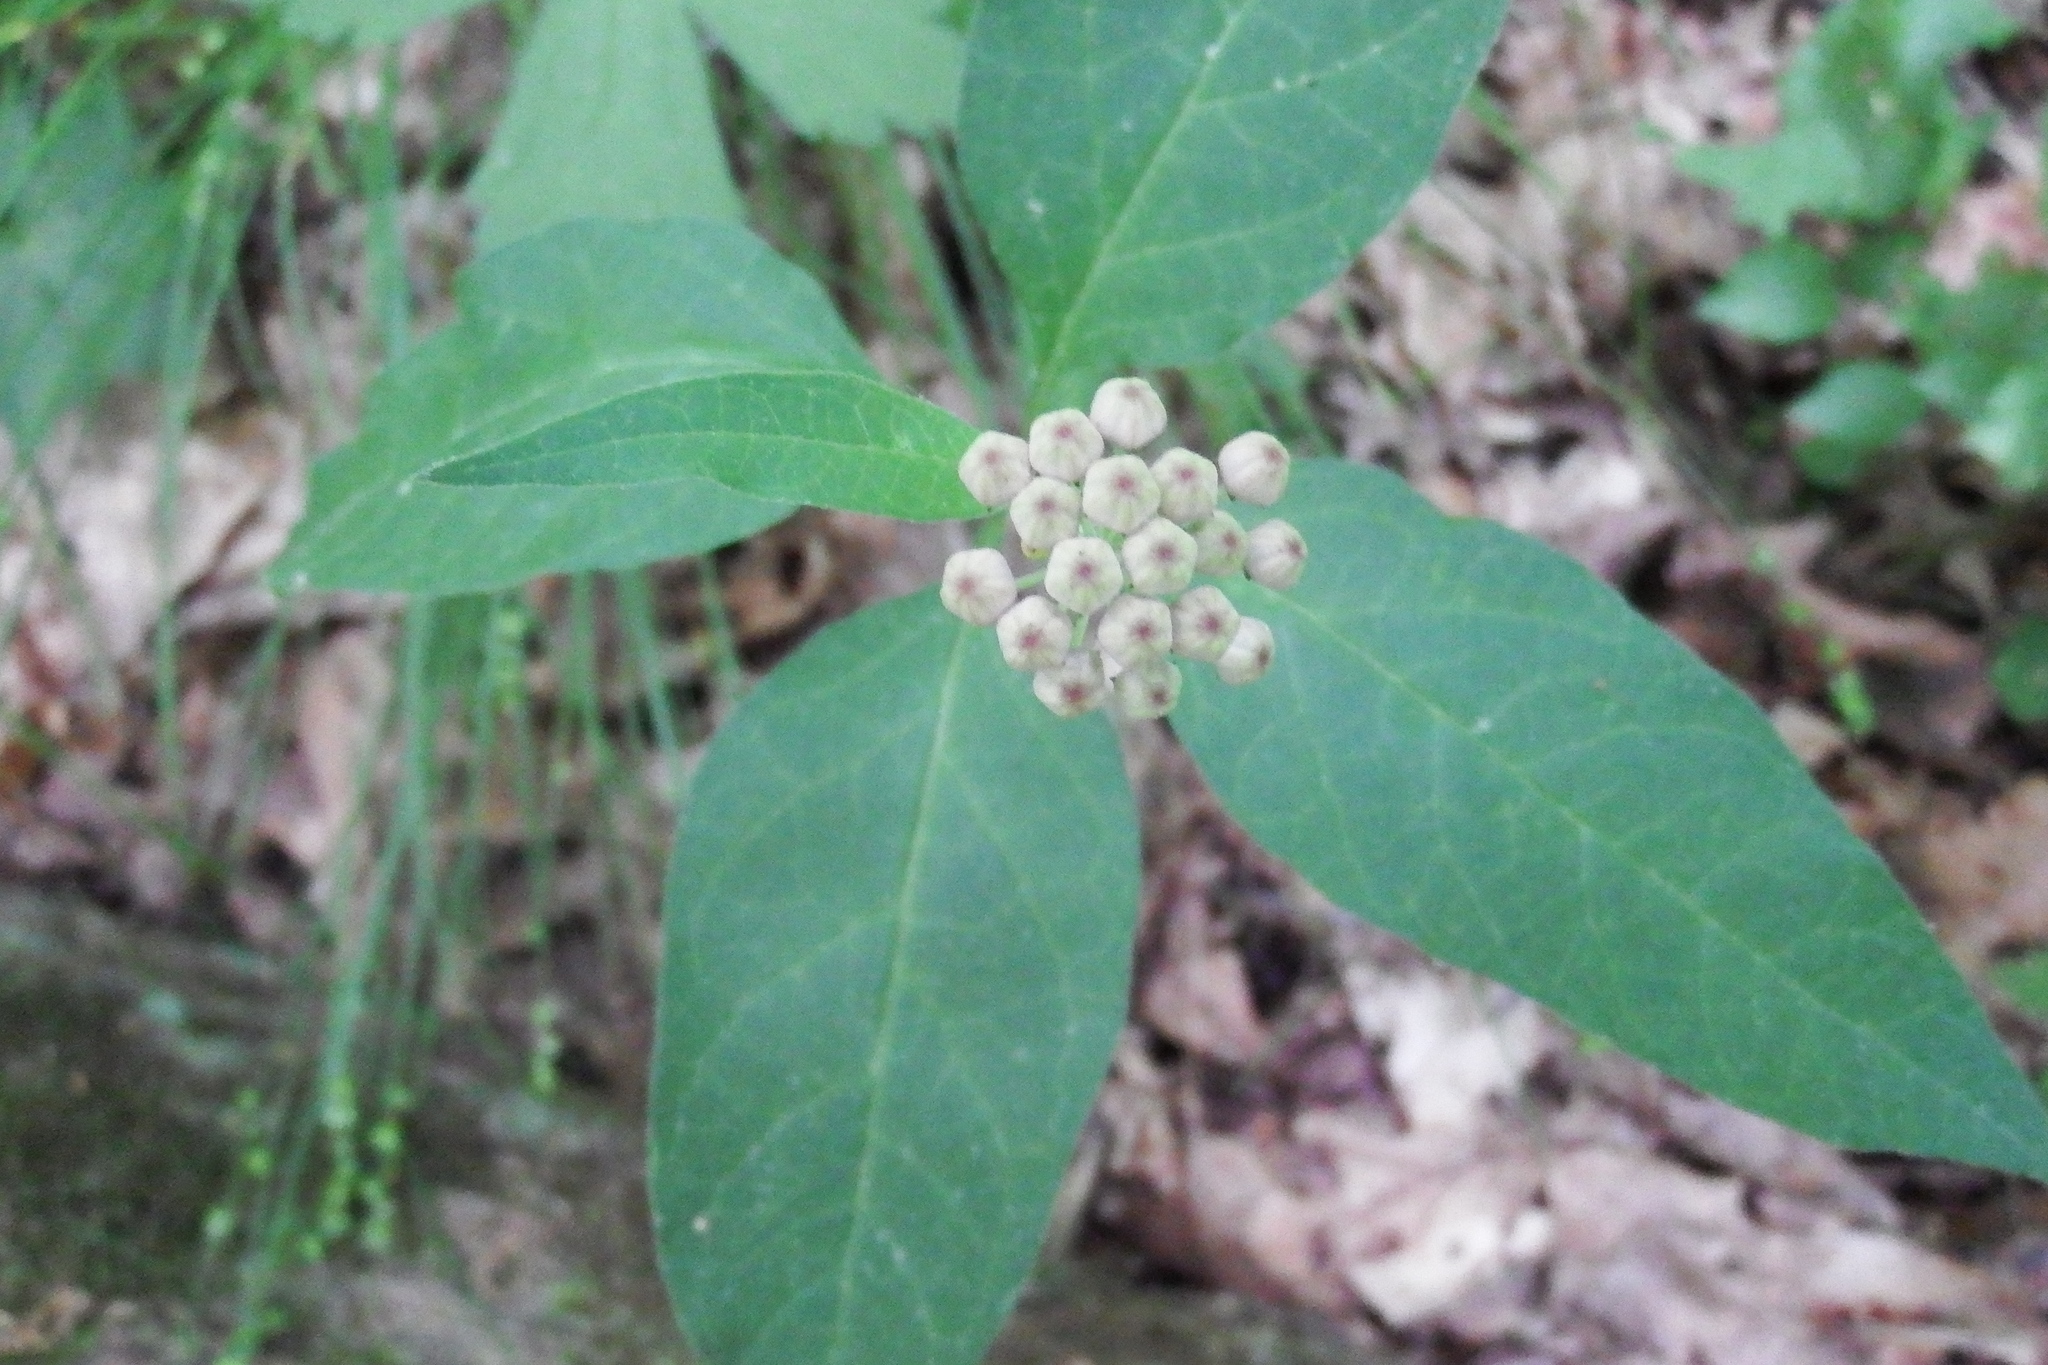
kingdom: Plantae
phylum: Tracheophyta
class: Magnoliopsida
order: Gentianales
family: Apocynaceae
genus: Asclepias
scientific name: Asclepias quadrifolia
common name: Whorled milkweed
